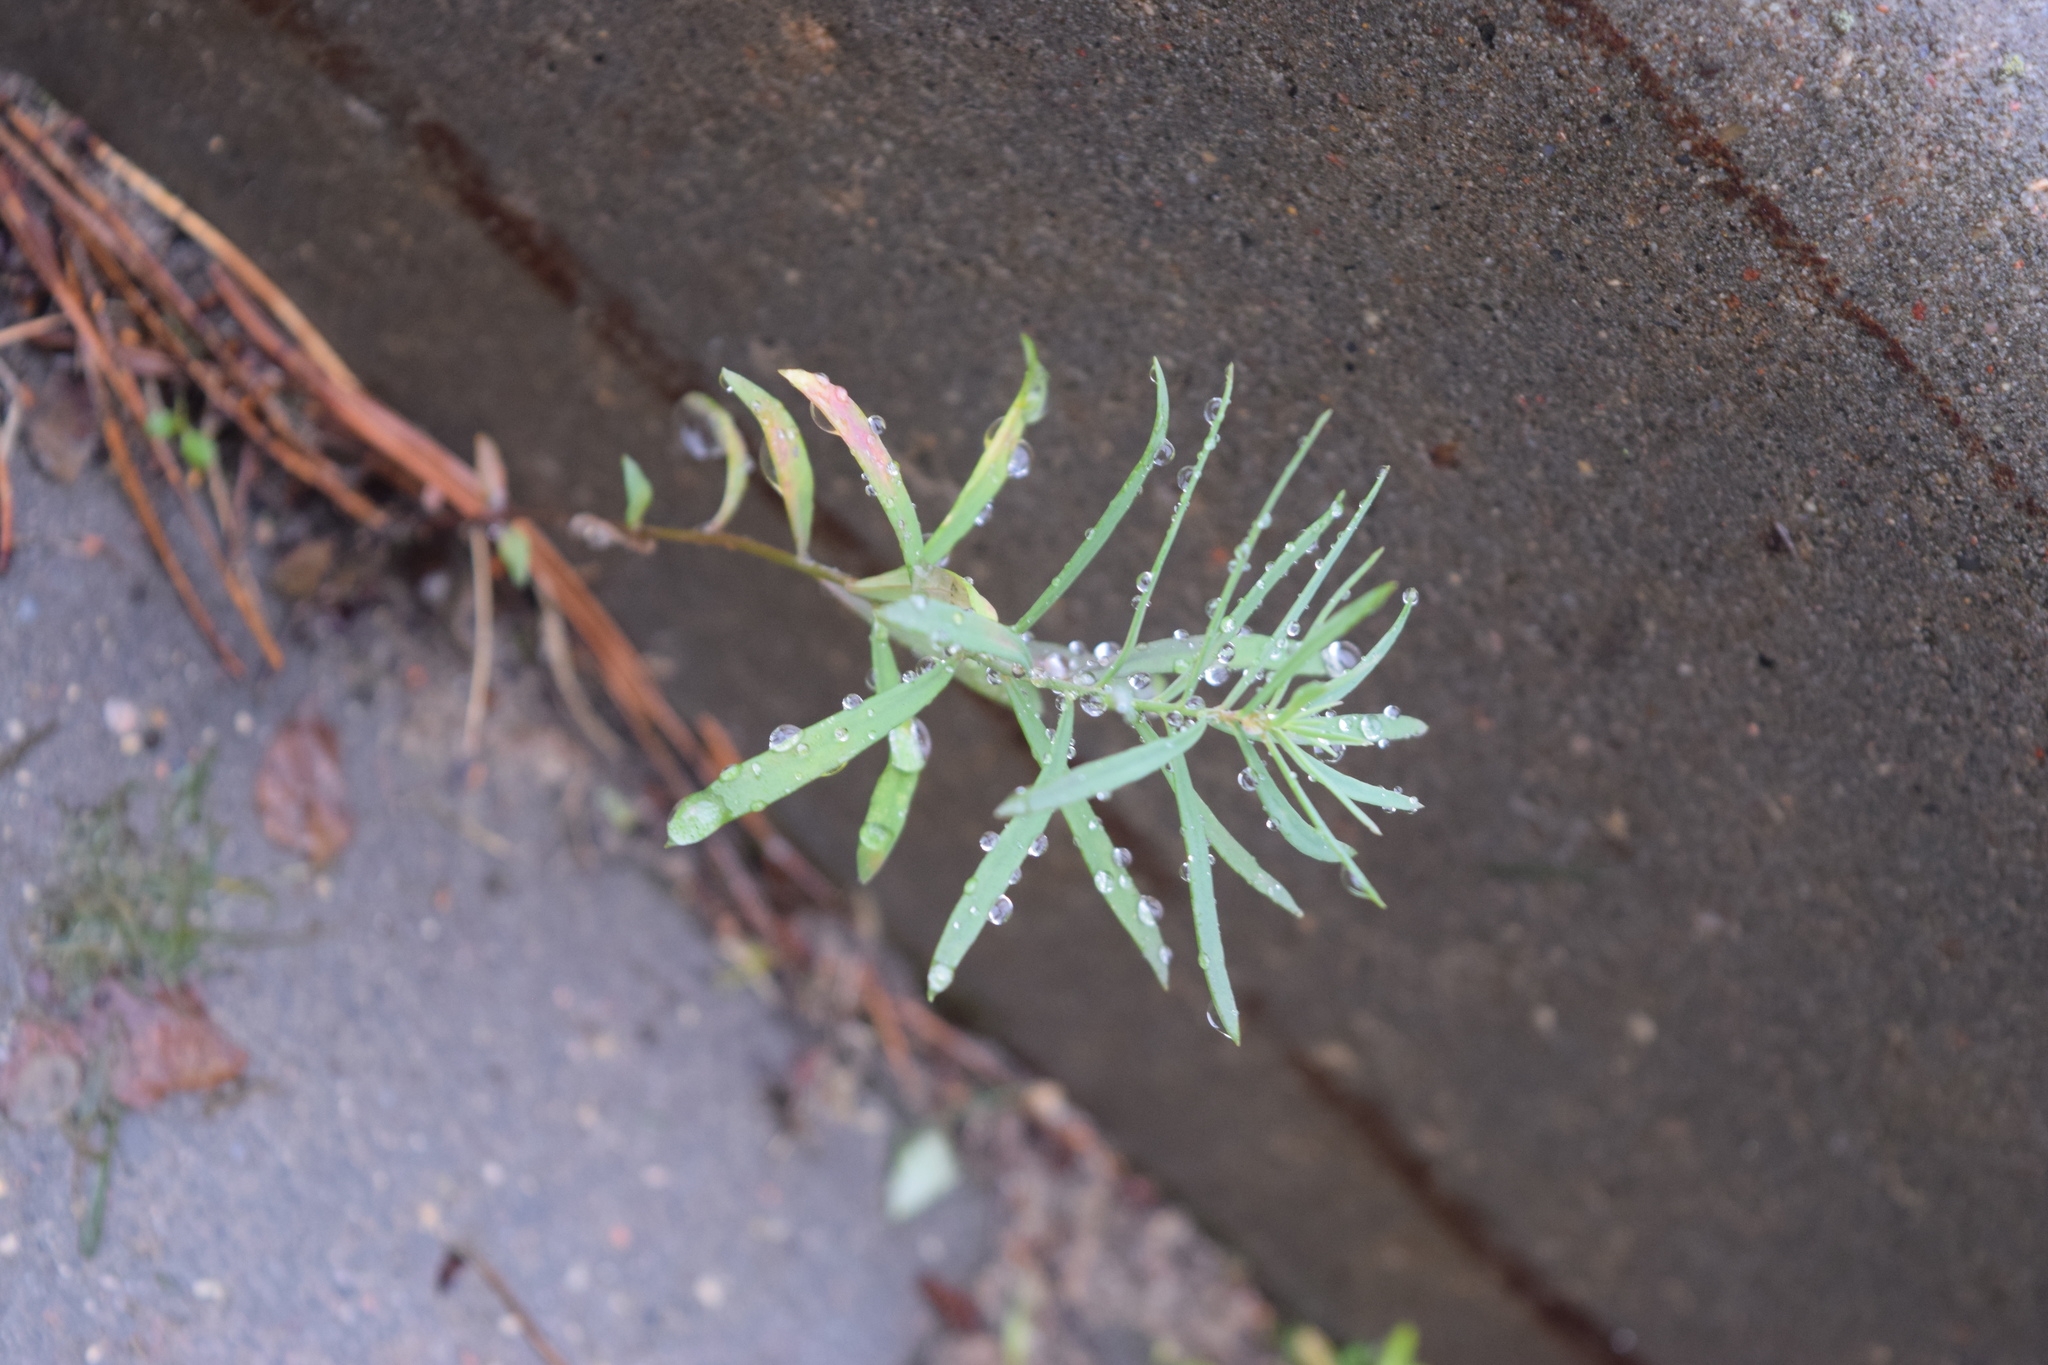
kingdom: Plantae
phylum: Tracheophyta
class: Magnoliopsida
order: Lamiales
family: Plantaginaceae
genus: Linaria
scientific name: Linaria vulgaris
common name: Butter and eggs
